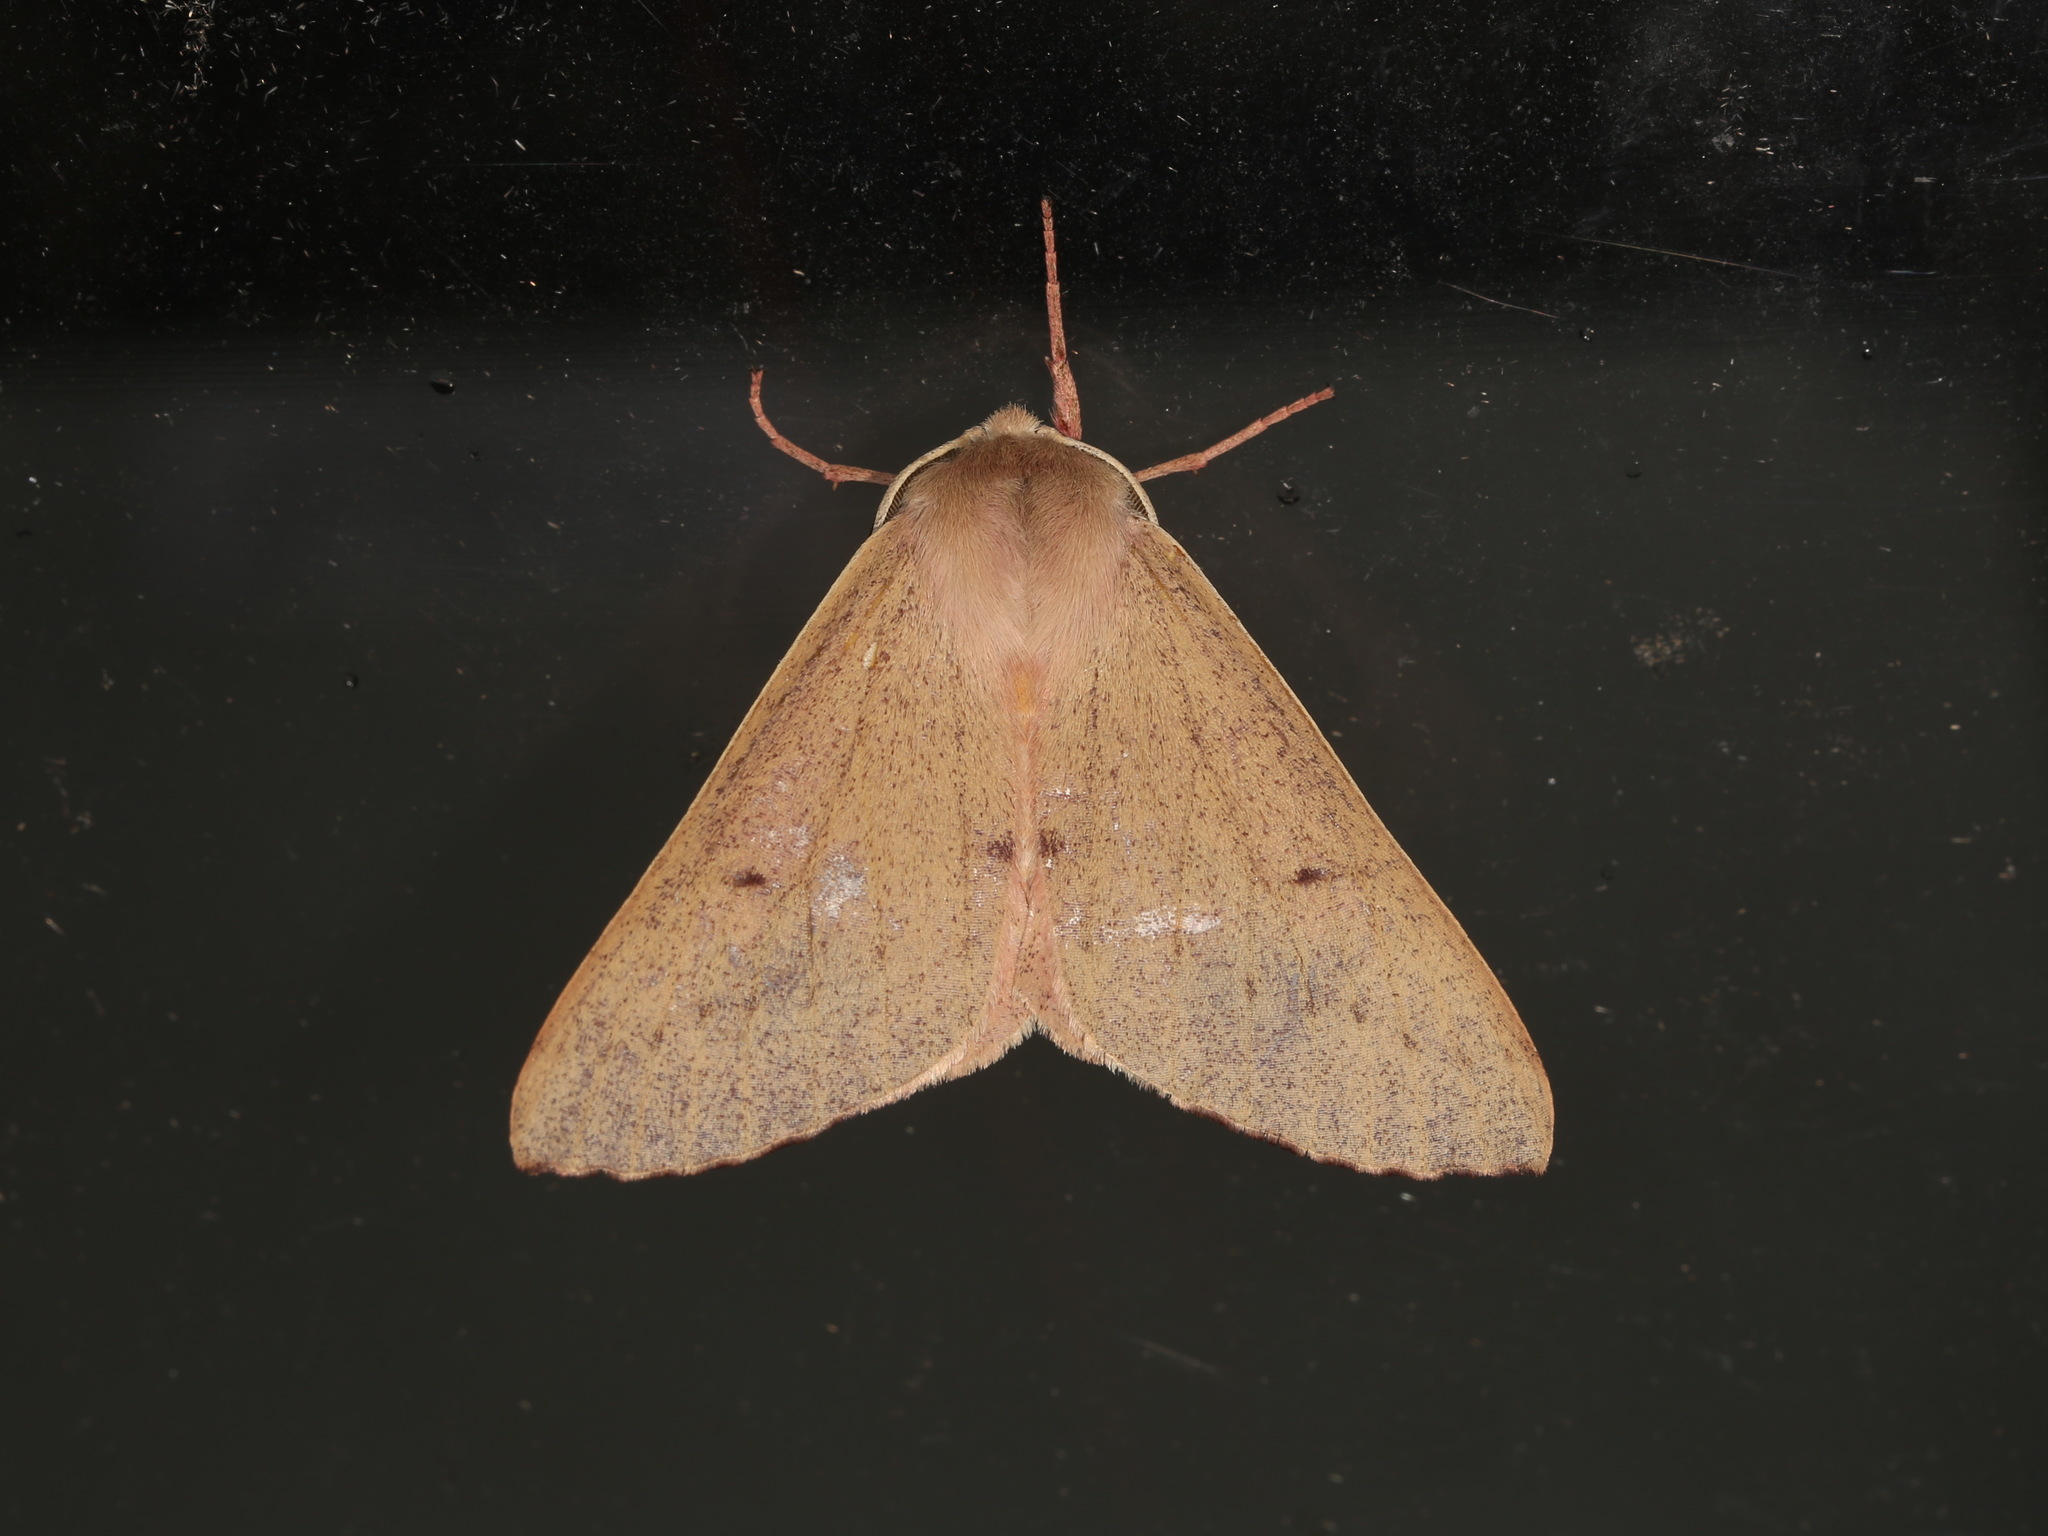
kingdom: Animalia
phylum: Arthropoda
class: Insecta
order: Lepidoptera
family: Geometridae
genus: Arhodia
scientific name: Arhodia lasiocamparia
